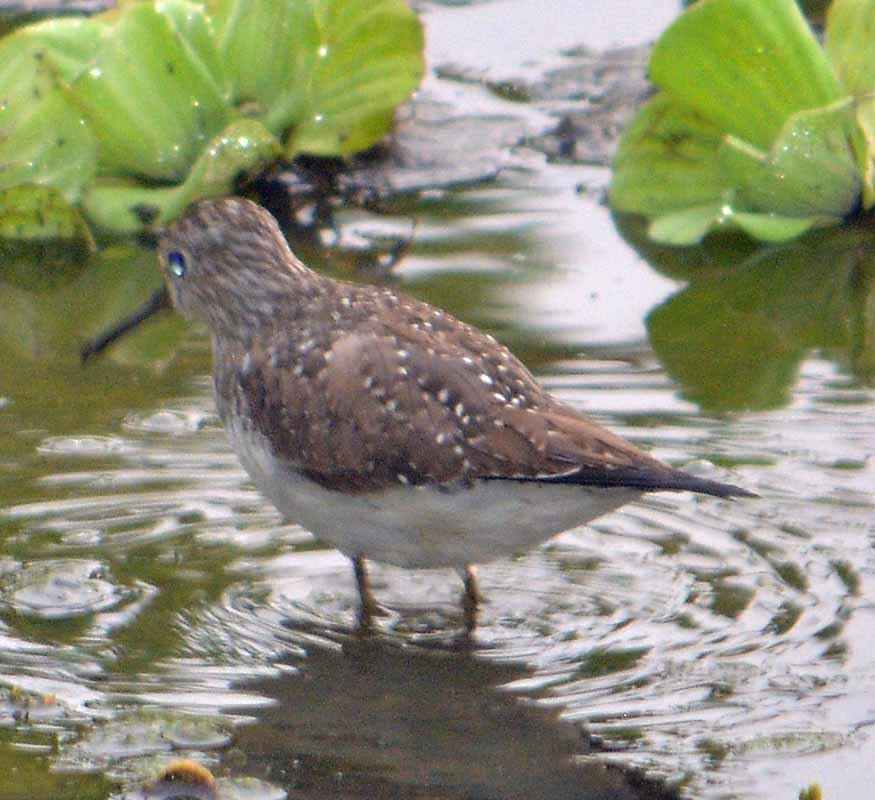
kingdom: Animalia
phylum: Chordata
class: Aves
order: Charadriiformes
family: Scolopacidae
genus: Tringa
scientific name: Tringa solitaria
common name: Solitary sandpiper
